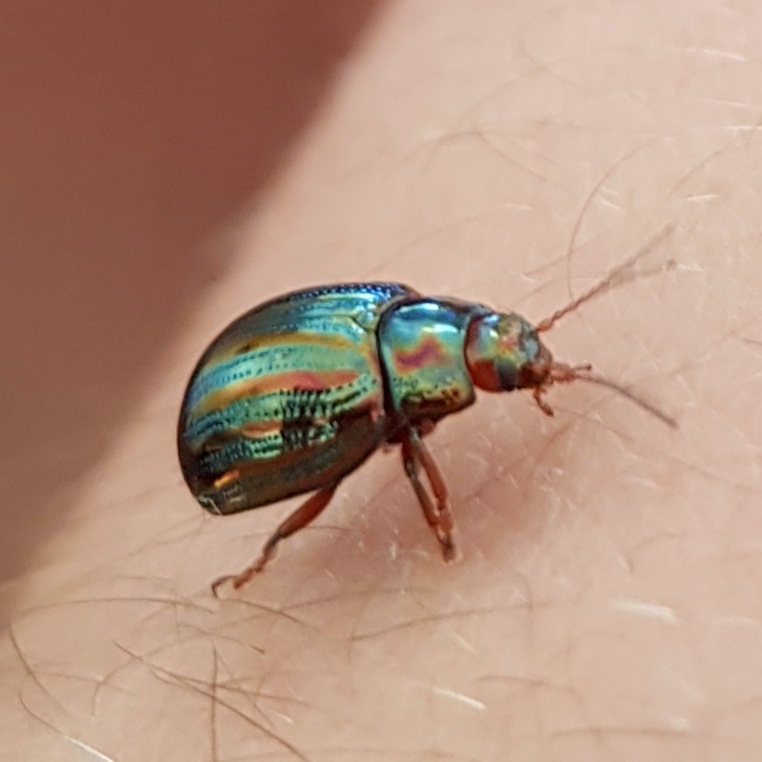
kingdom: Animalia
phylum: Arthropoda
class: Insecta
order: Coleoptera
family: Chrysomelidae
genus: Chrysolina
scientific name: Chrysolina americana
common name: Rosemary beetle
